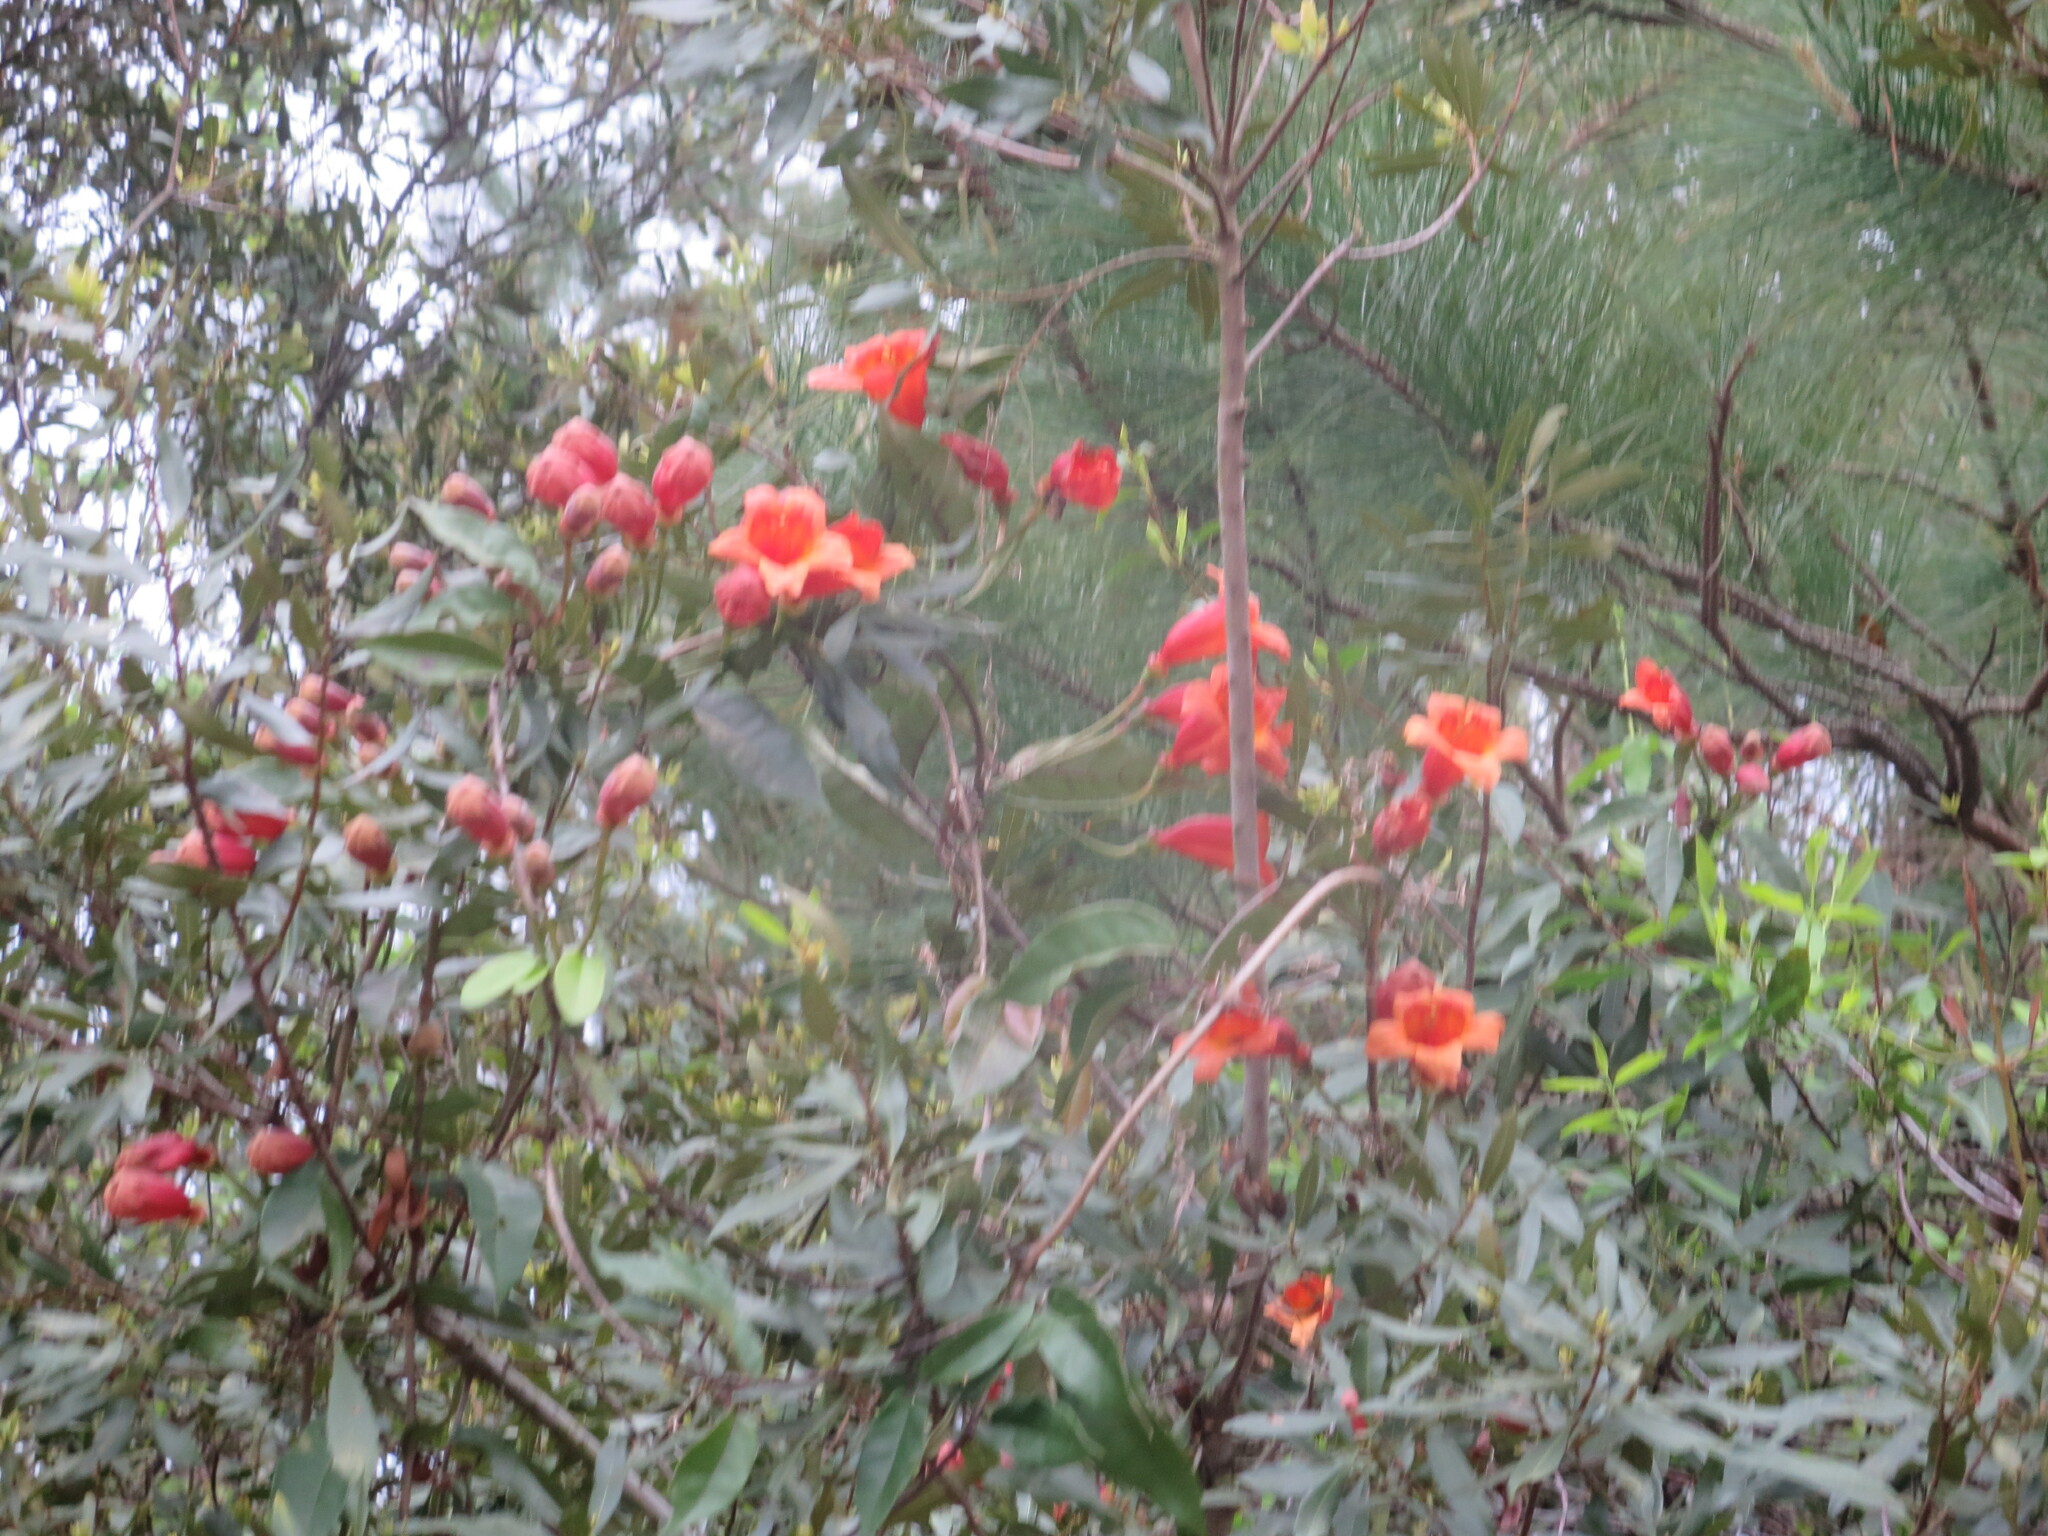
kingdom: Plantae
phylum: Tracheophyta
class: Magnoliopsida
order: Lamiales
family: Bignoniaceae
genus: Bignonia
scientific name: Bignonia capreolata
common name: Crossvine
